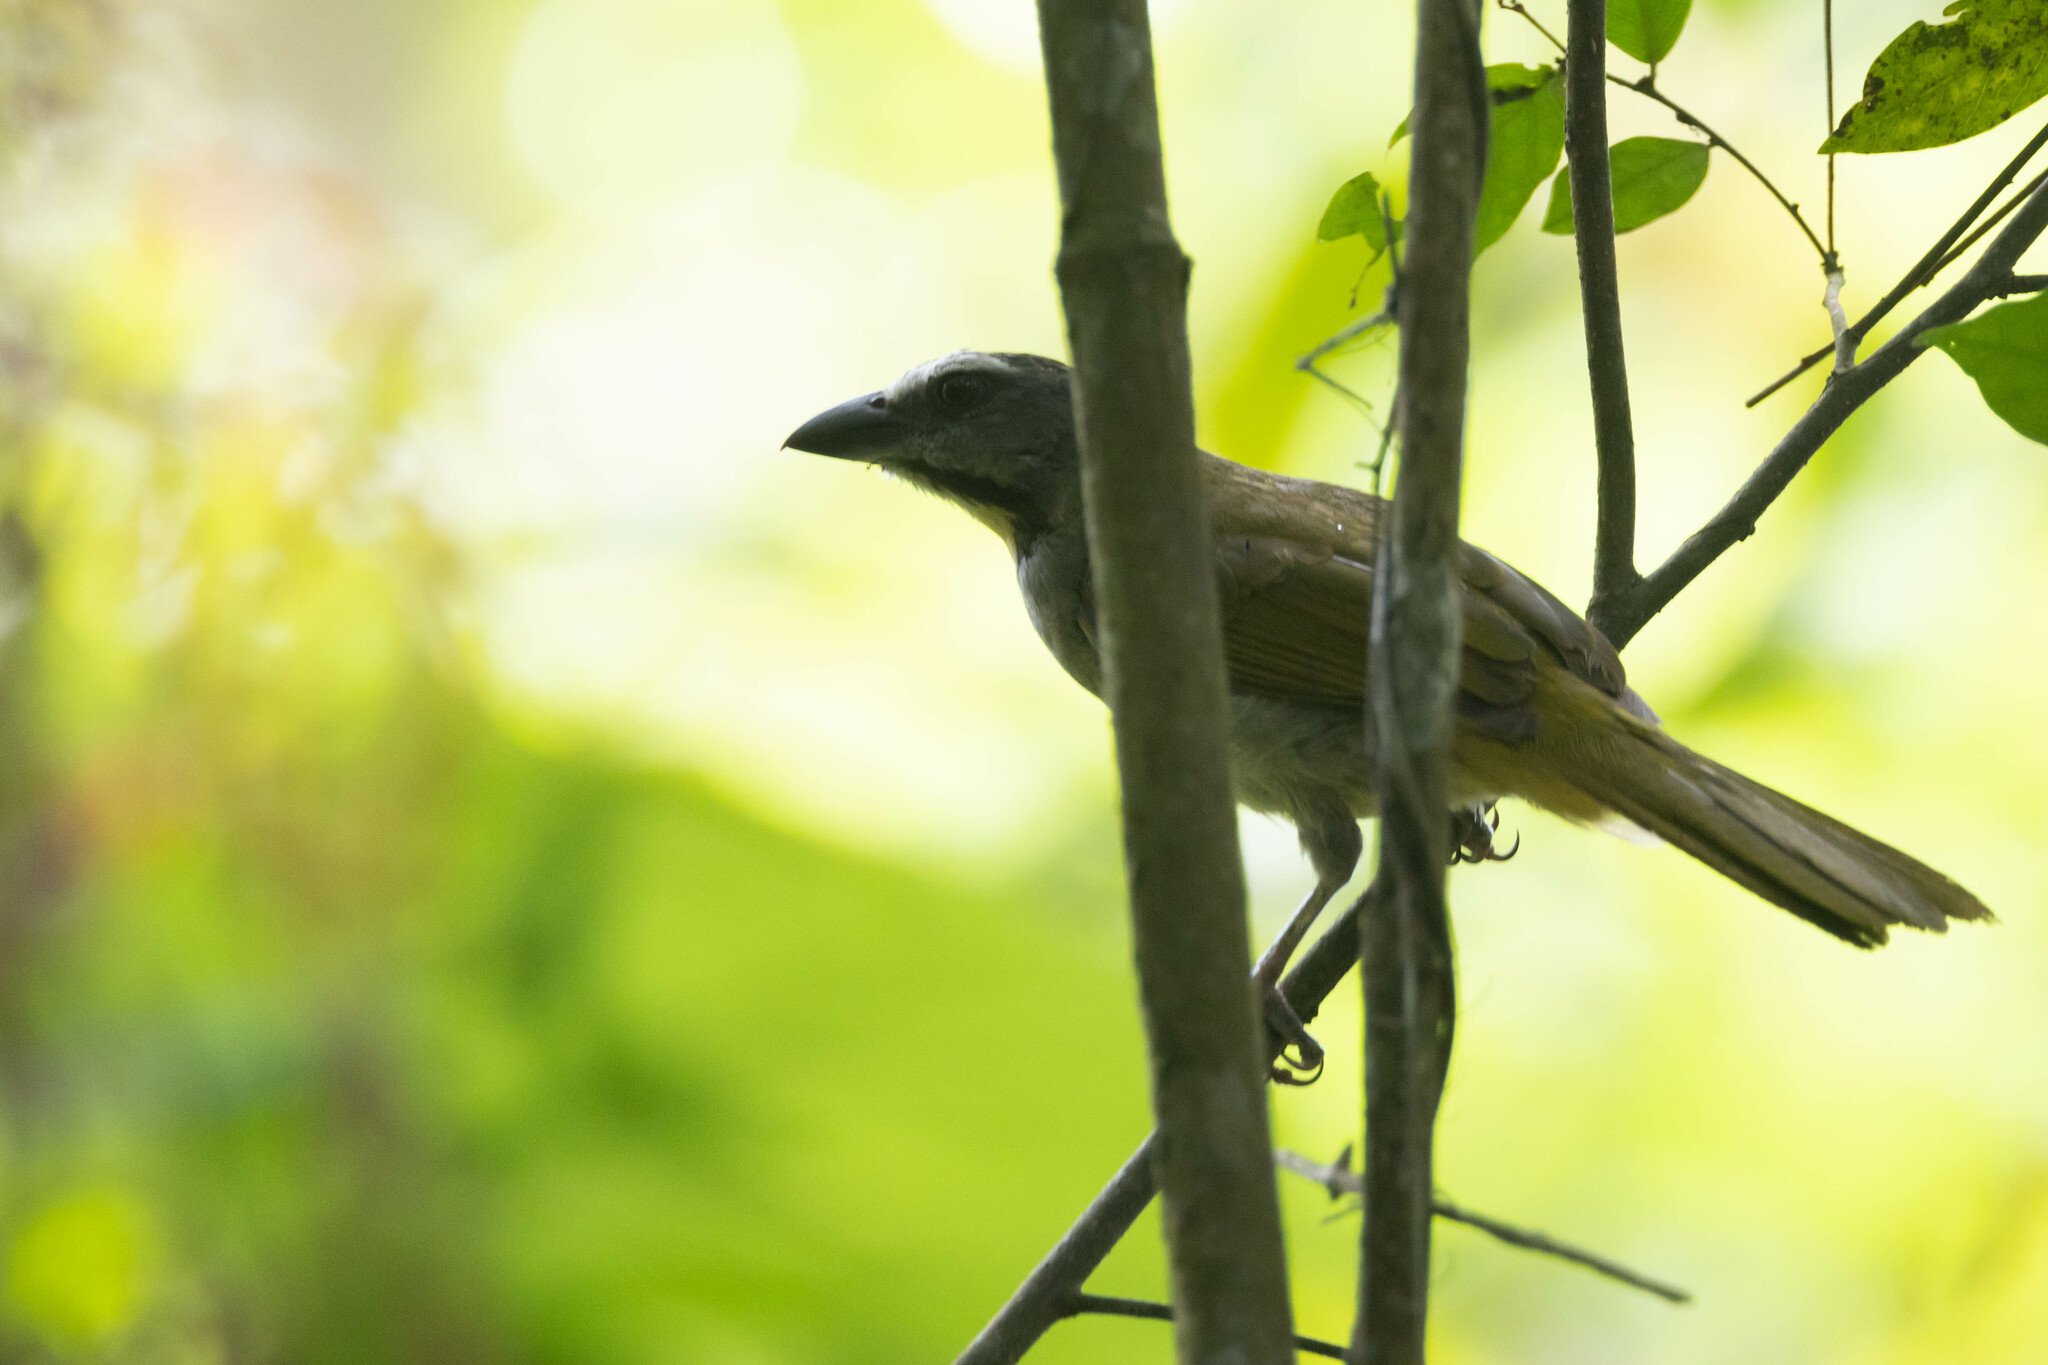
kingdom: Animalia
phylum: Chordata
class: Aves
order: Passeriformes
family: Thraupidae
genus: Saltator
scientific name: Saltator maximus
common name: Buff-throated saltator
